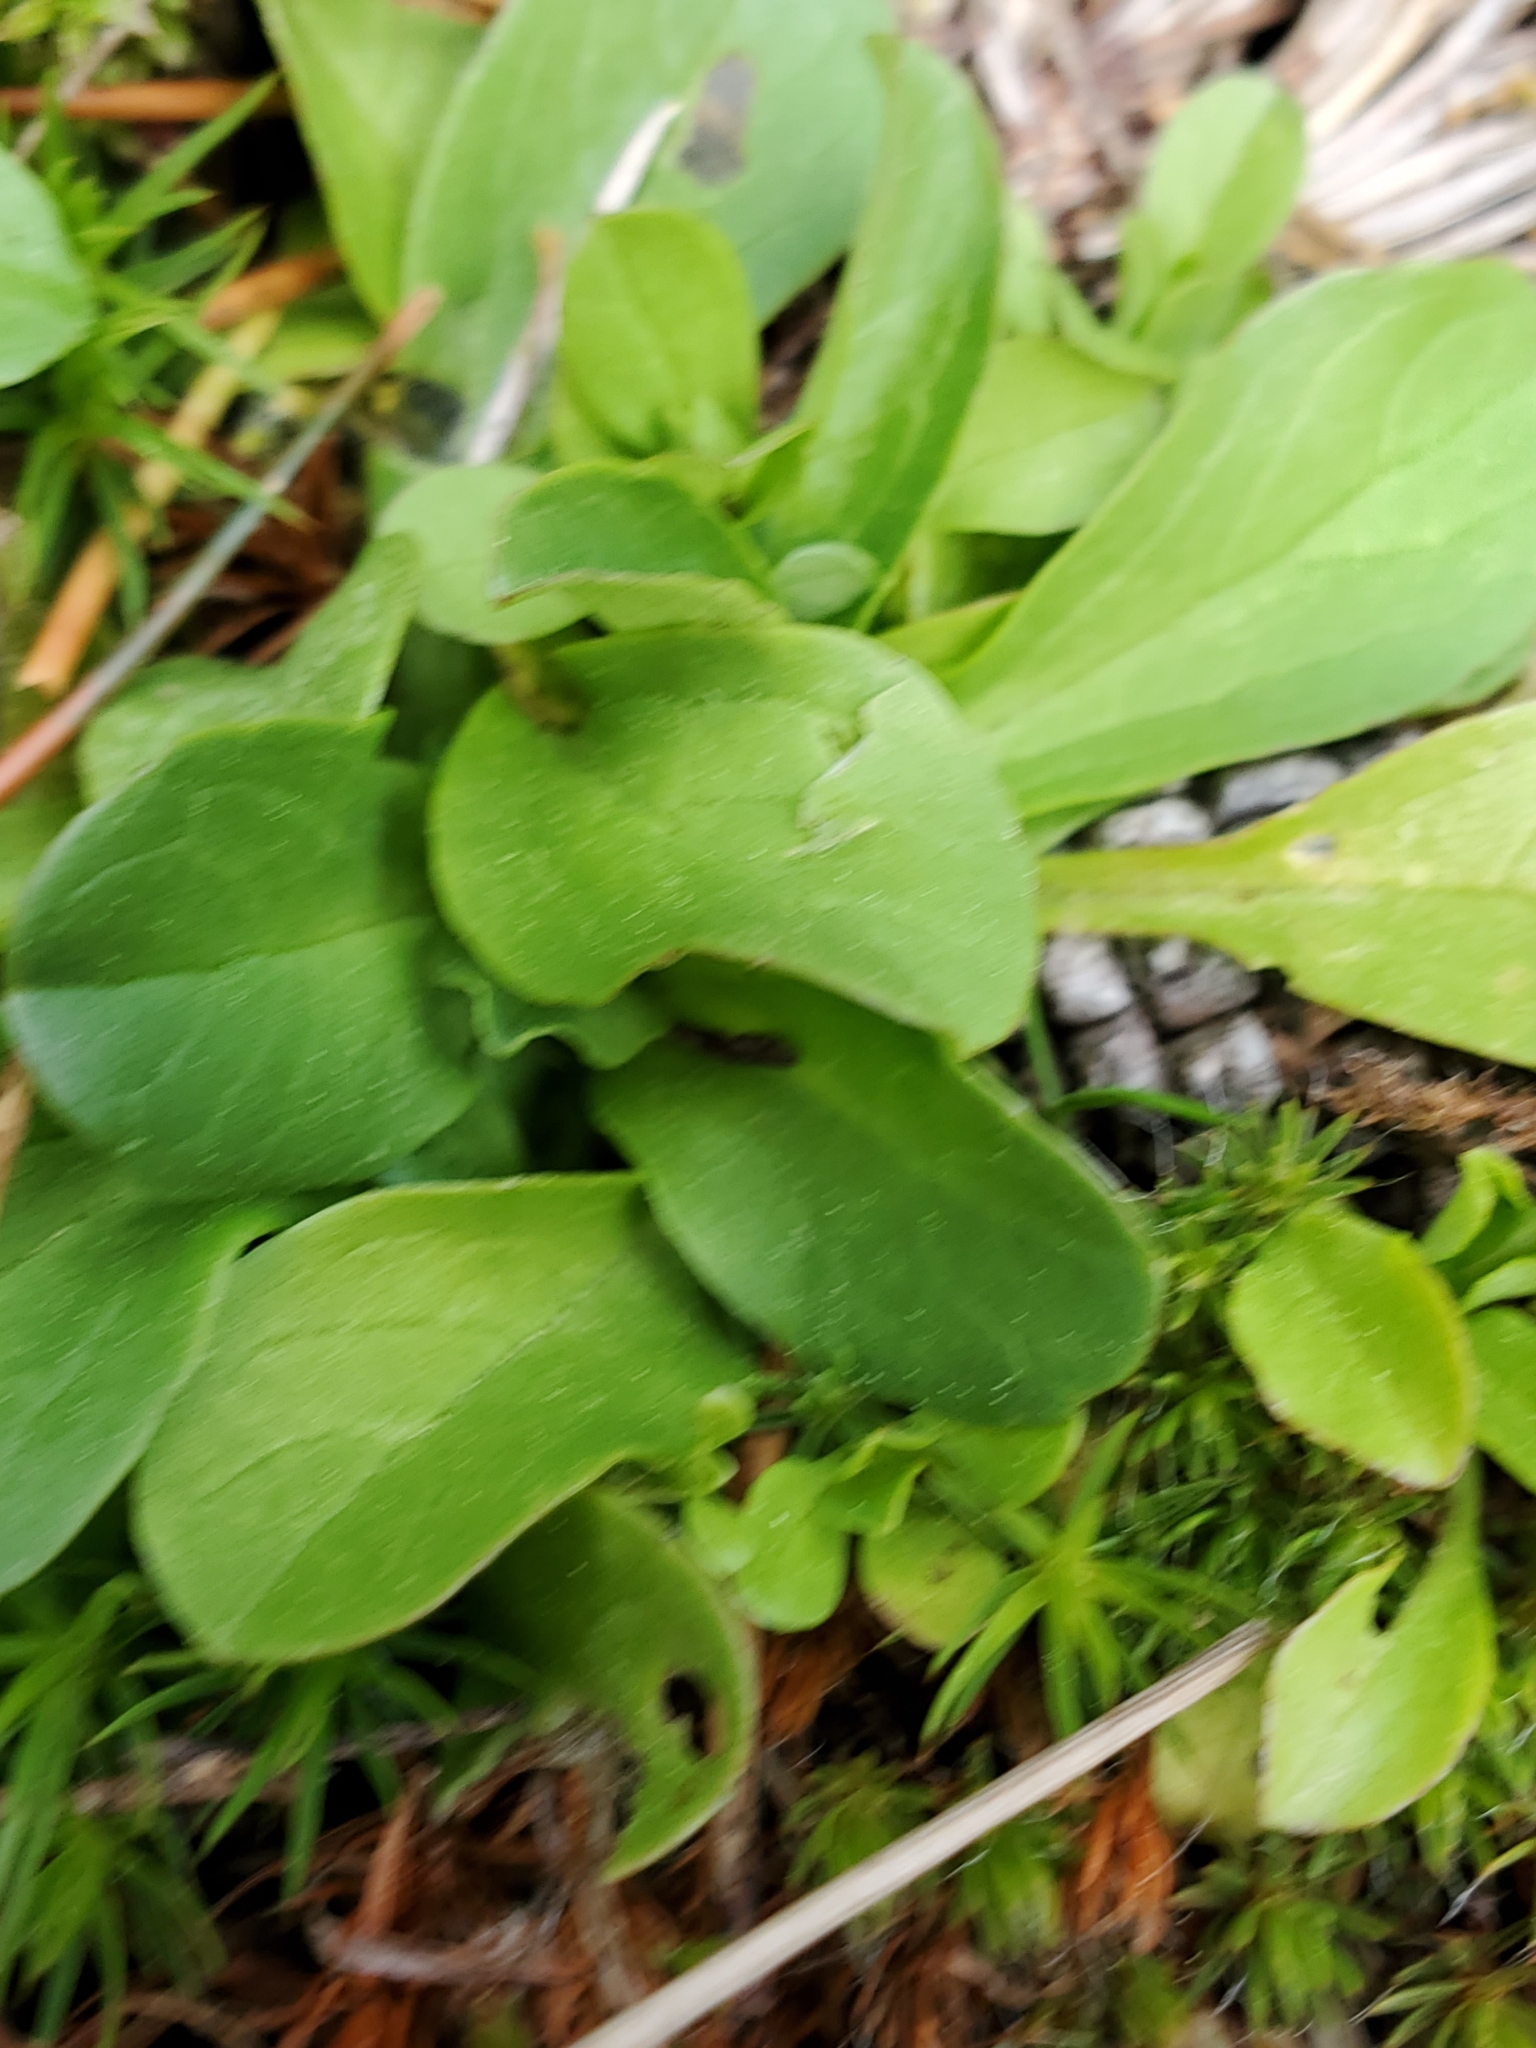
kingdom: Plantae
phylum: Tracheophyta
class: Magnoliopsida
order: Dipsacales
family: Caprifoliaceae
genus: Plectritis
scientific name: Plectritis congesta
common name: Pink plectritis
